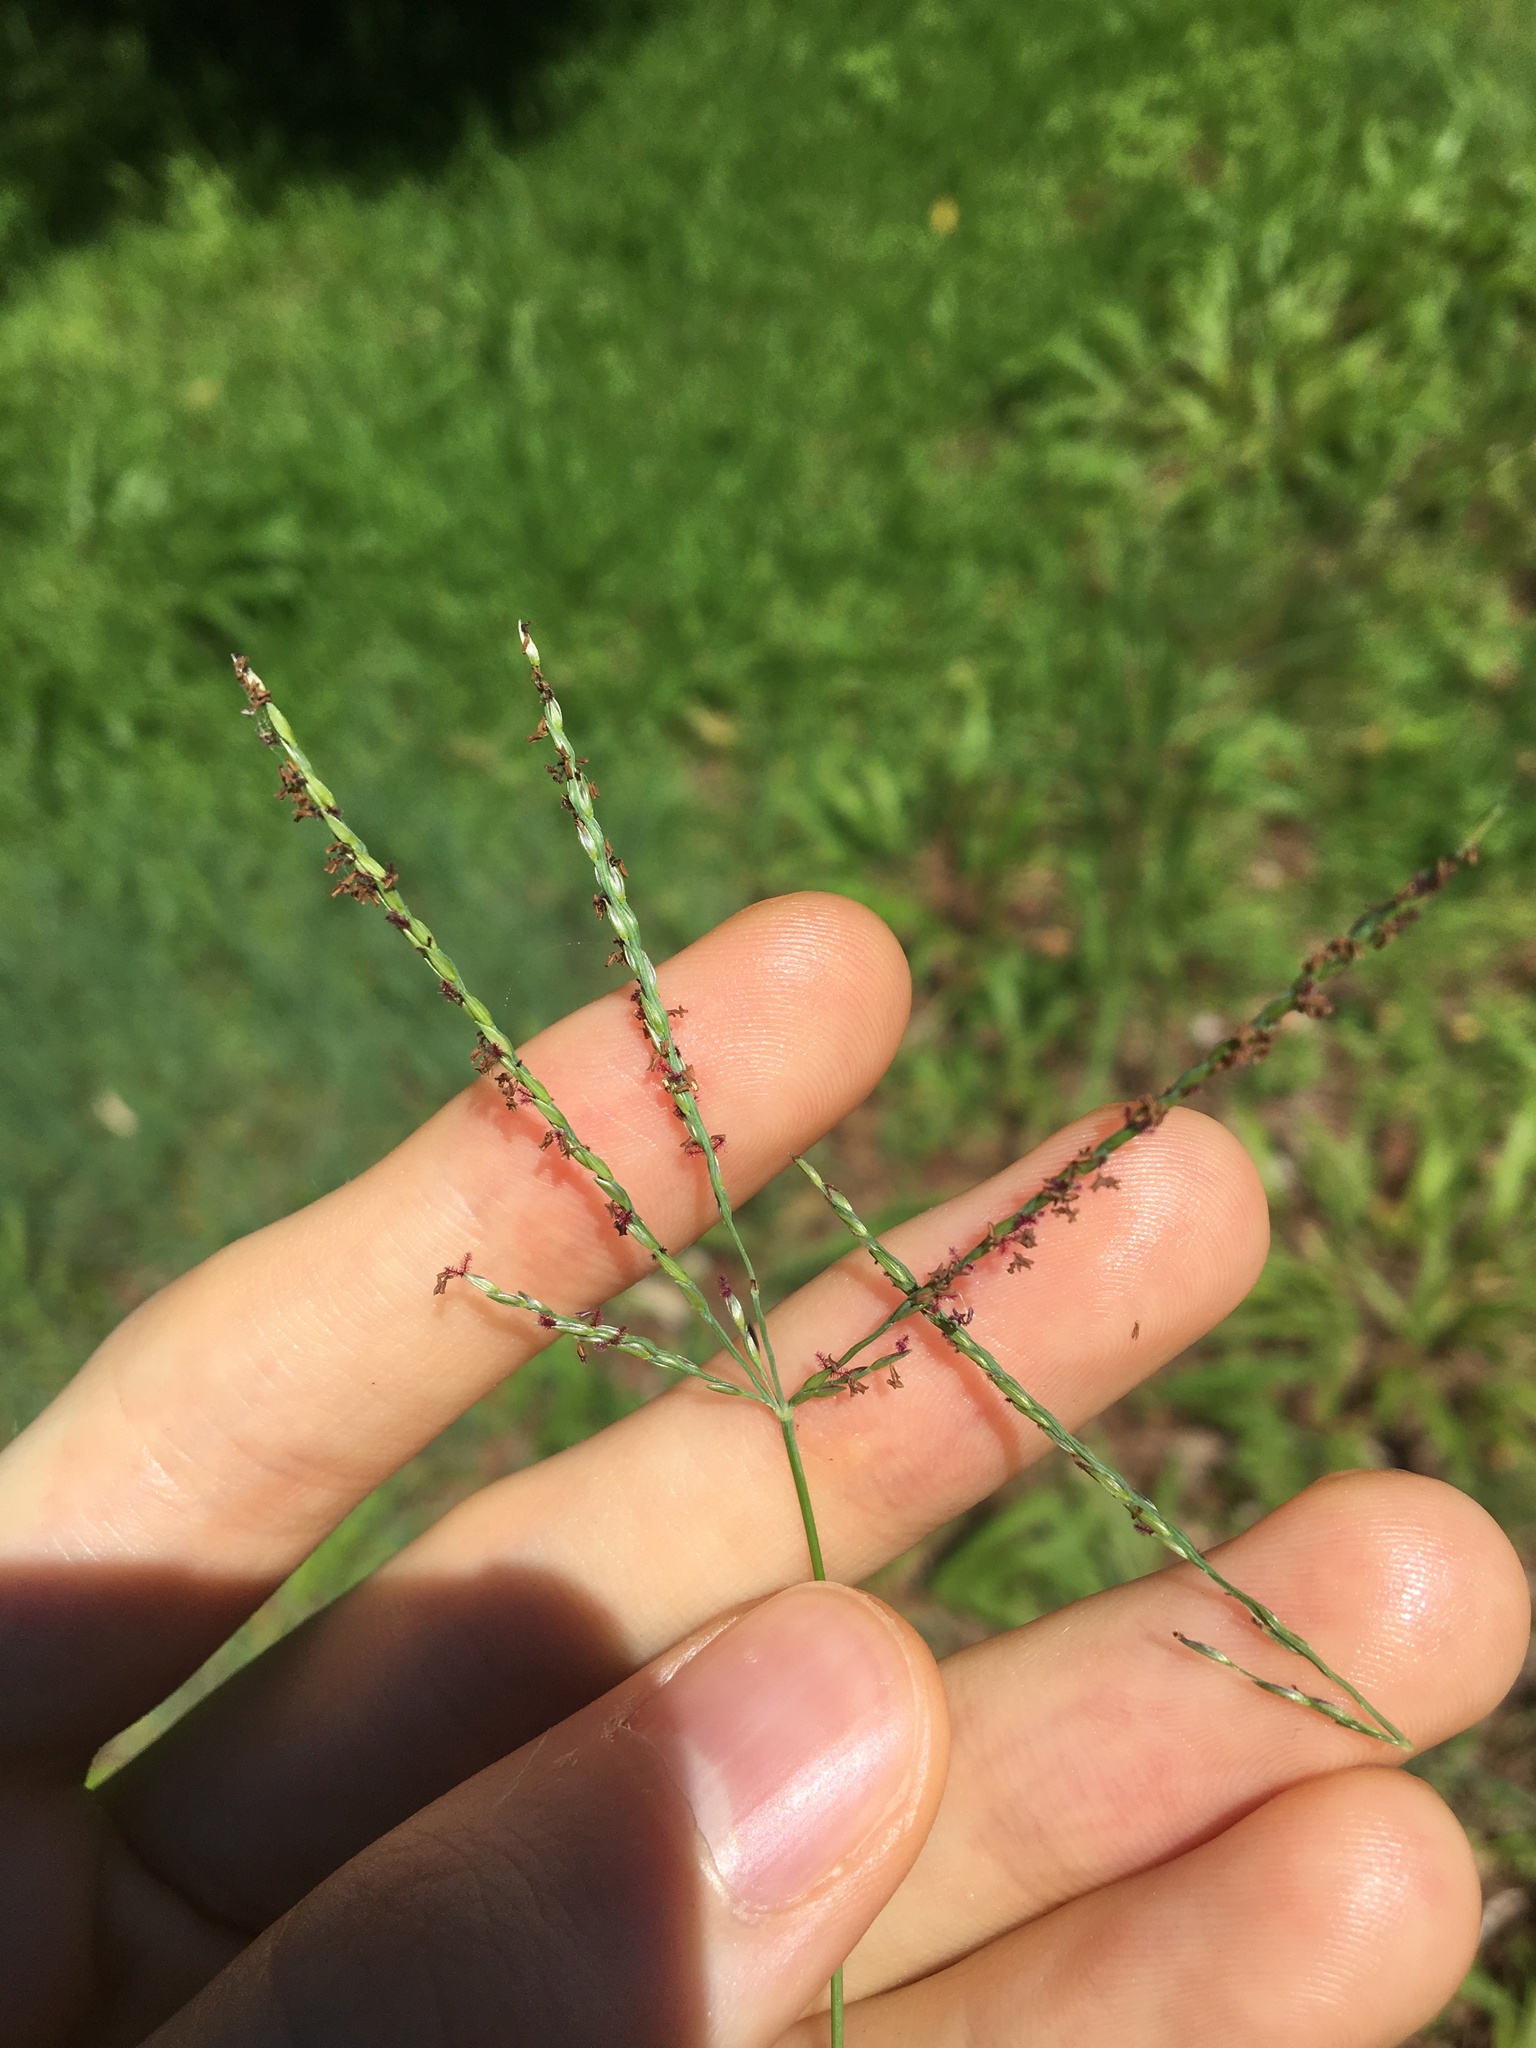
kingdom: Plantae
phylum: Tracheophyta
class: Liliopsida
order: Poales
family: Poaceae
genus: Cynodon
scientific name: Cynodon dactylon
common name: Bermuda grass
